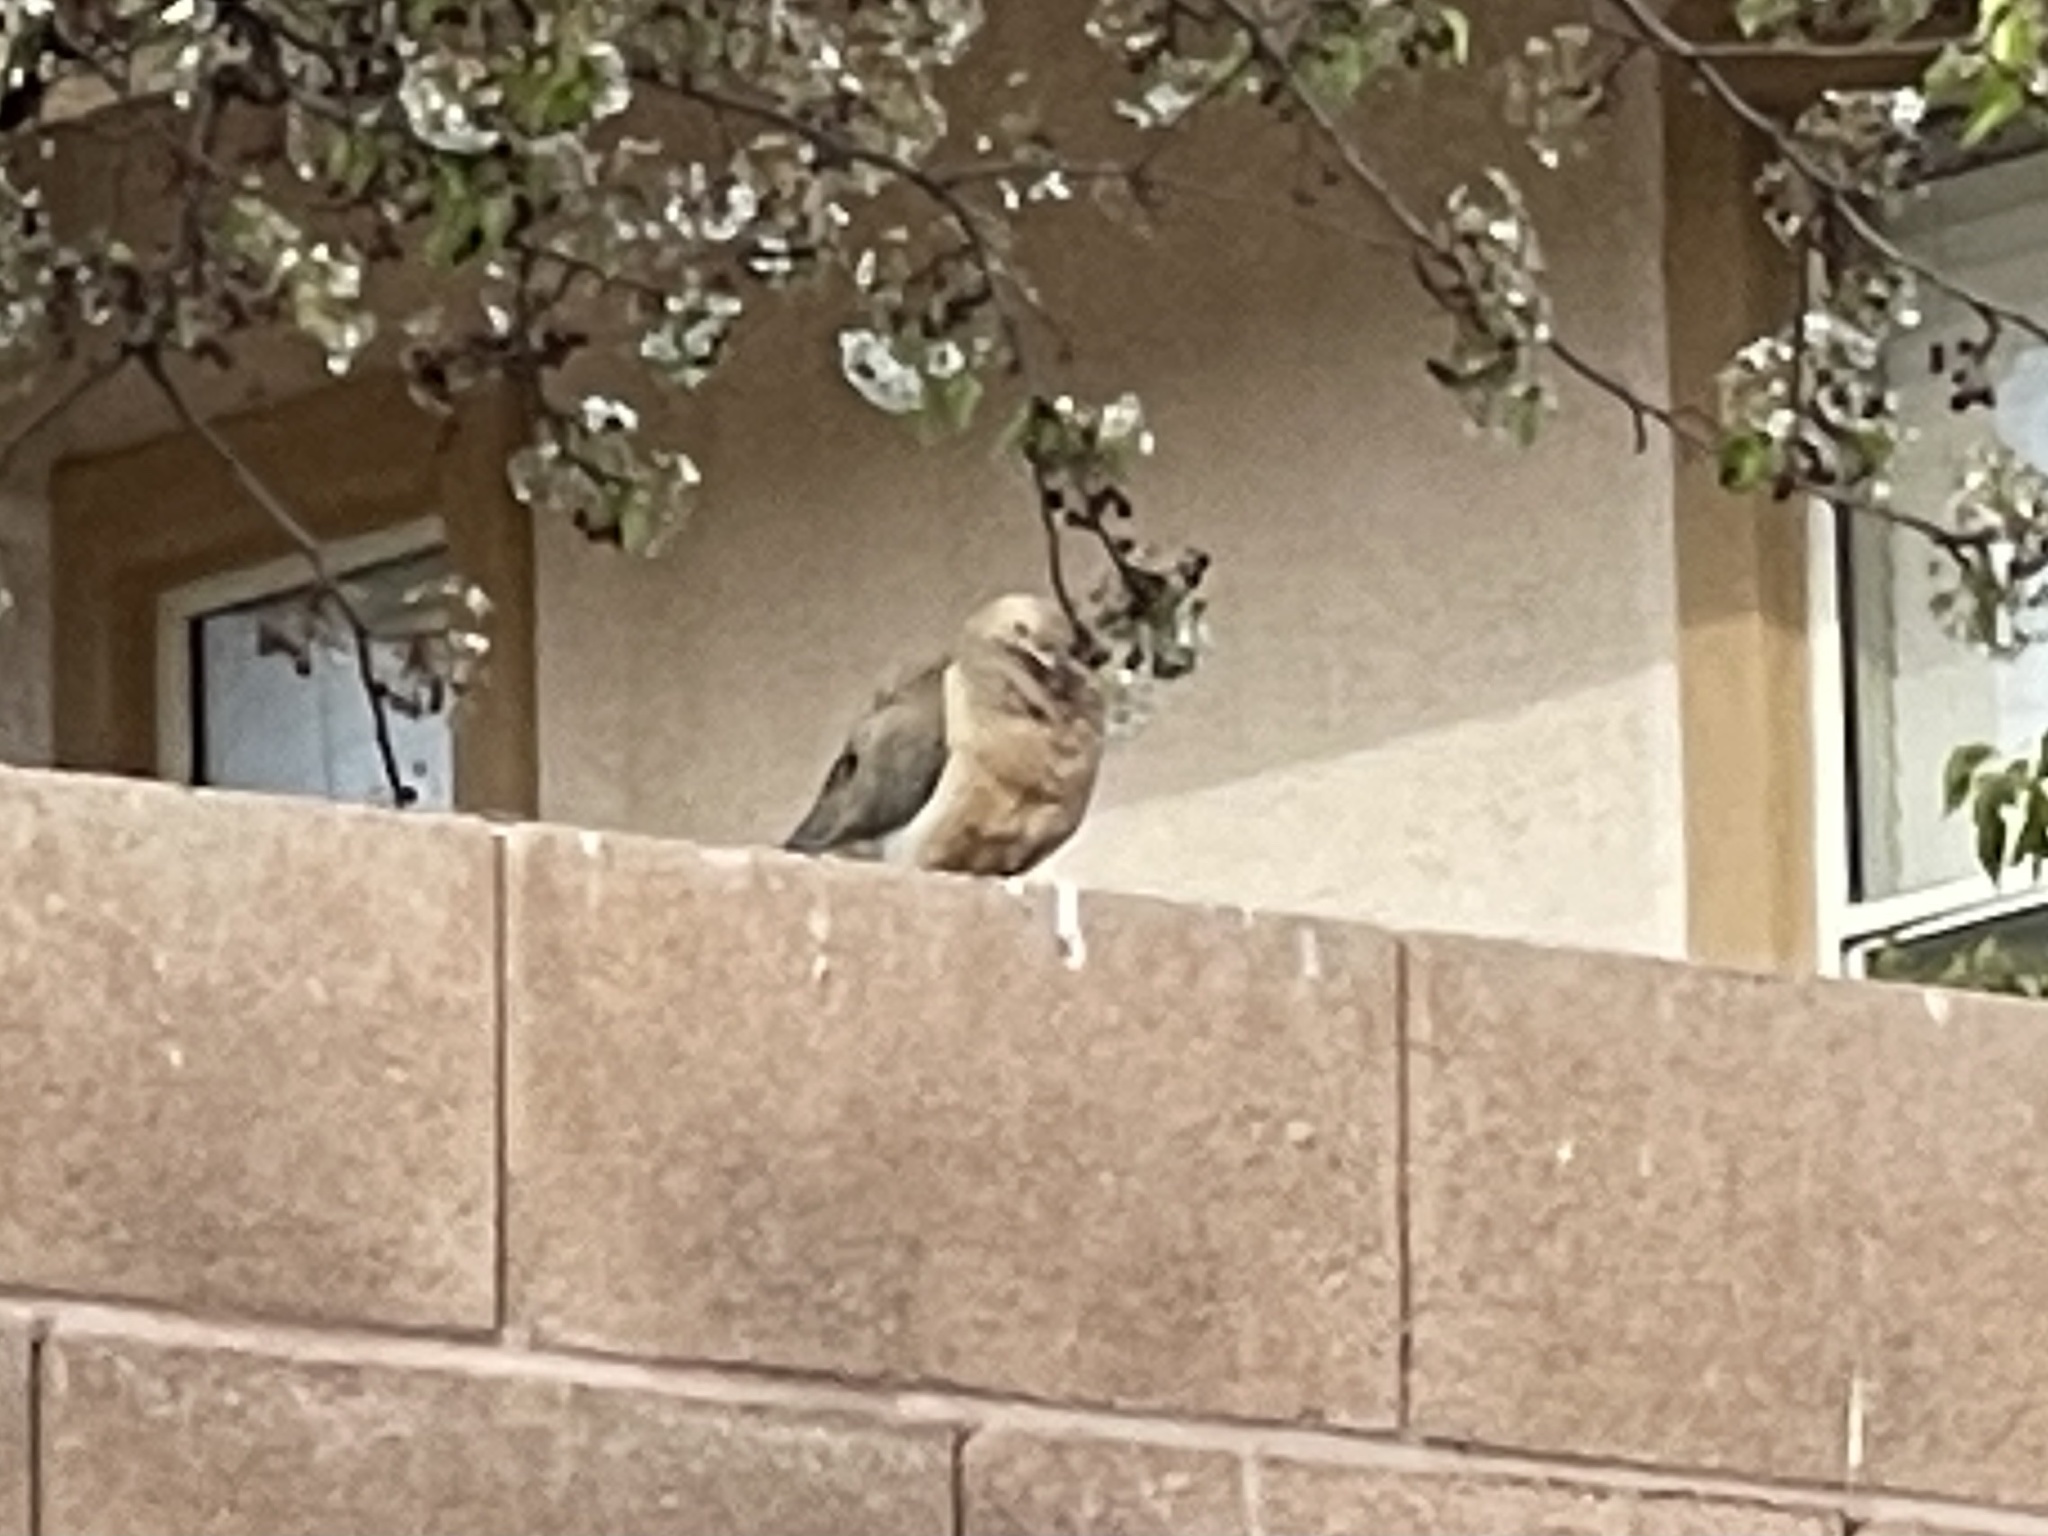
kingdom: Animalia
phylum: Chordata
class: Aves
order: Columbiformes
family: Columbidae
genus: Zenaida
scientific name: Zenaida macroura
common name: Mourning dove
